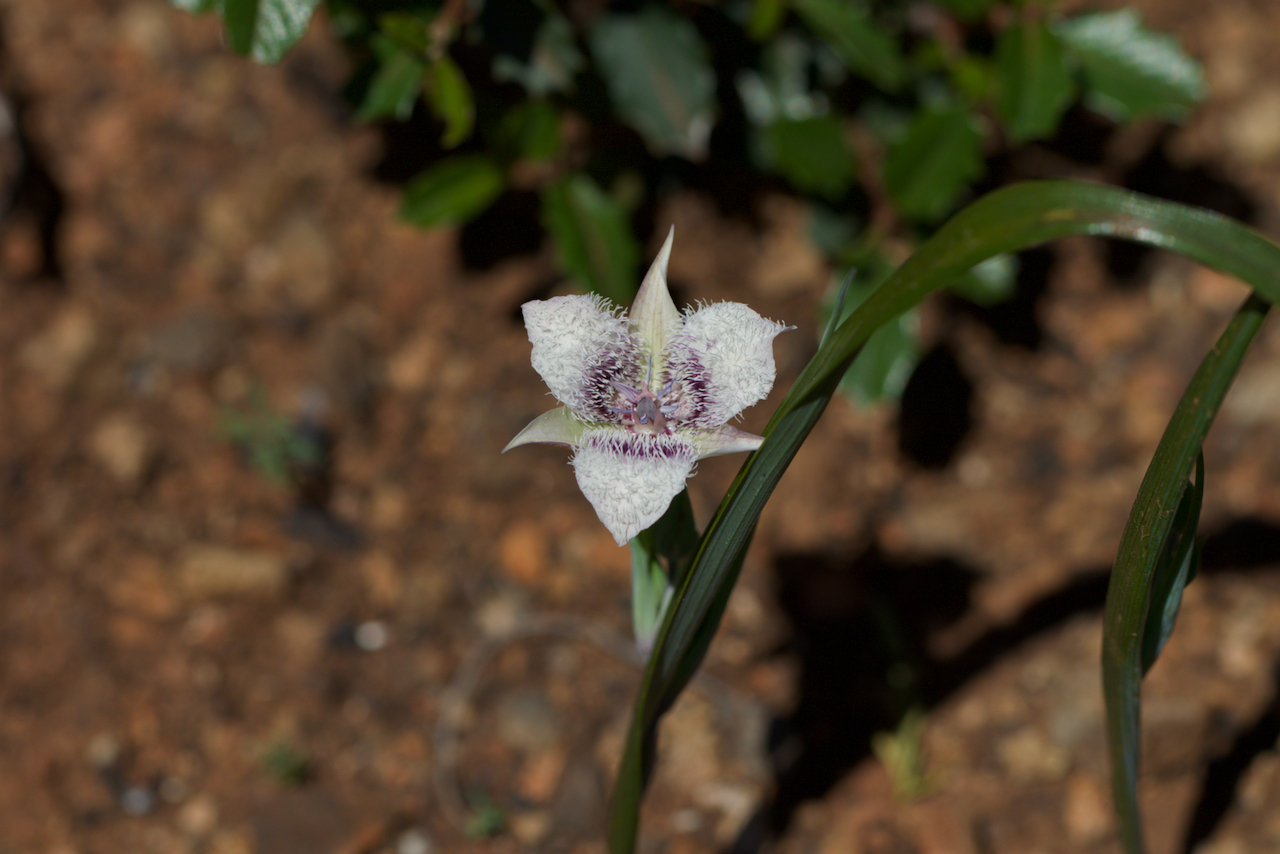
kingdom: Plantae
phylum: Tracheophyta
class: Liliopsida
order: Liliales
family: Liliaceae
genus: Calochortus
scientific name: Calochortus tolmiei
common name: Pussy-ears
